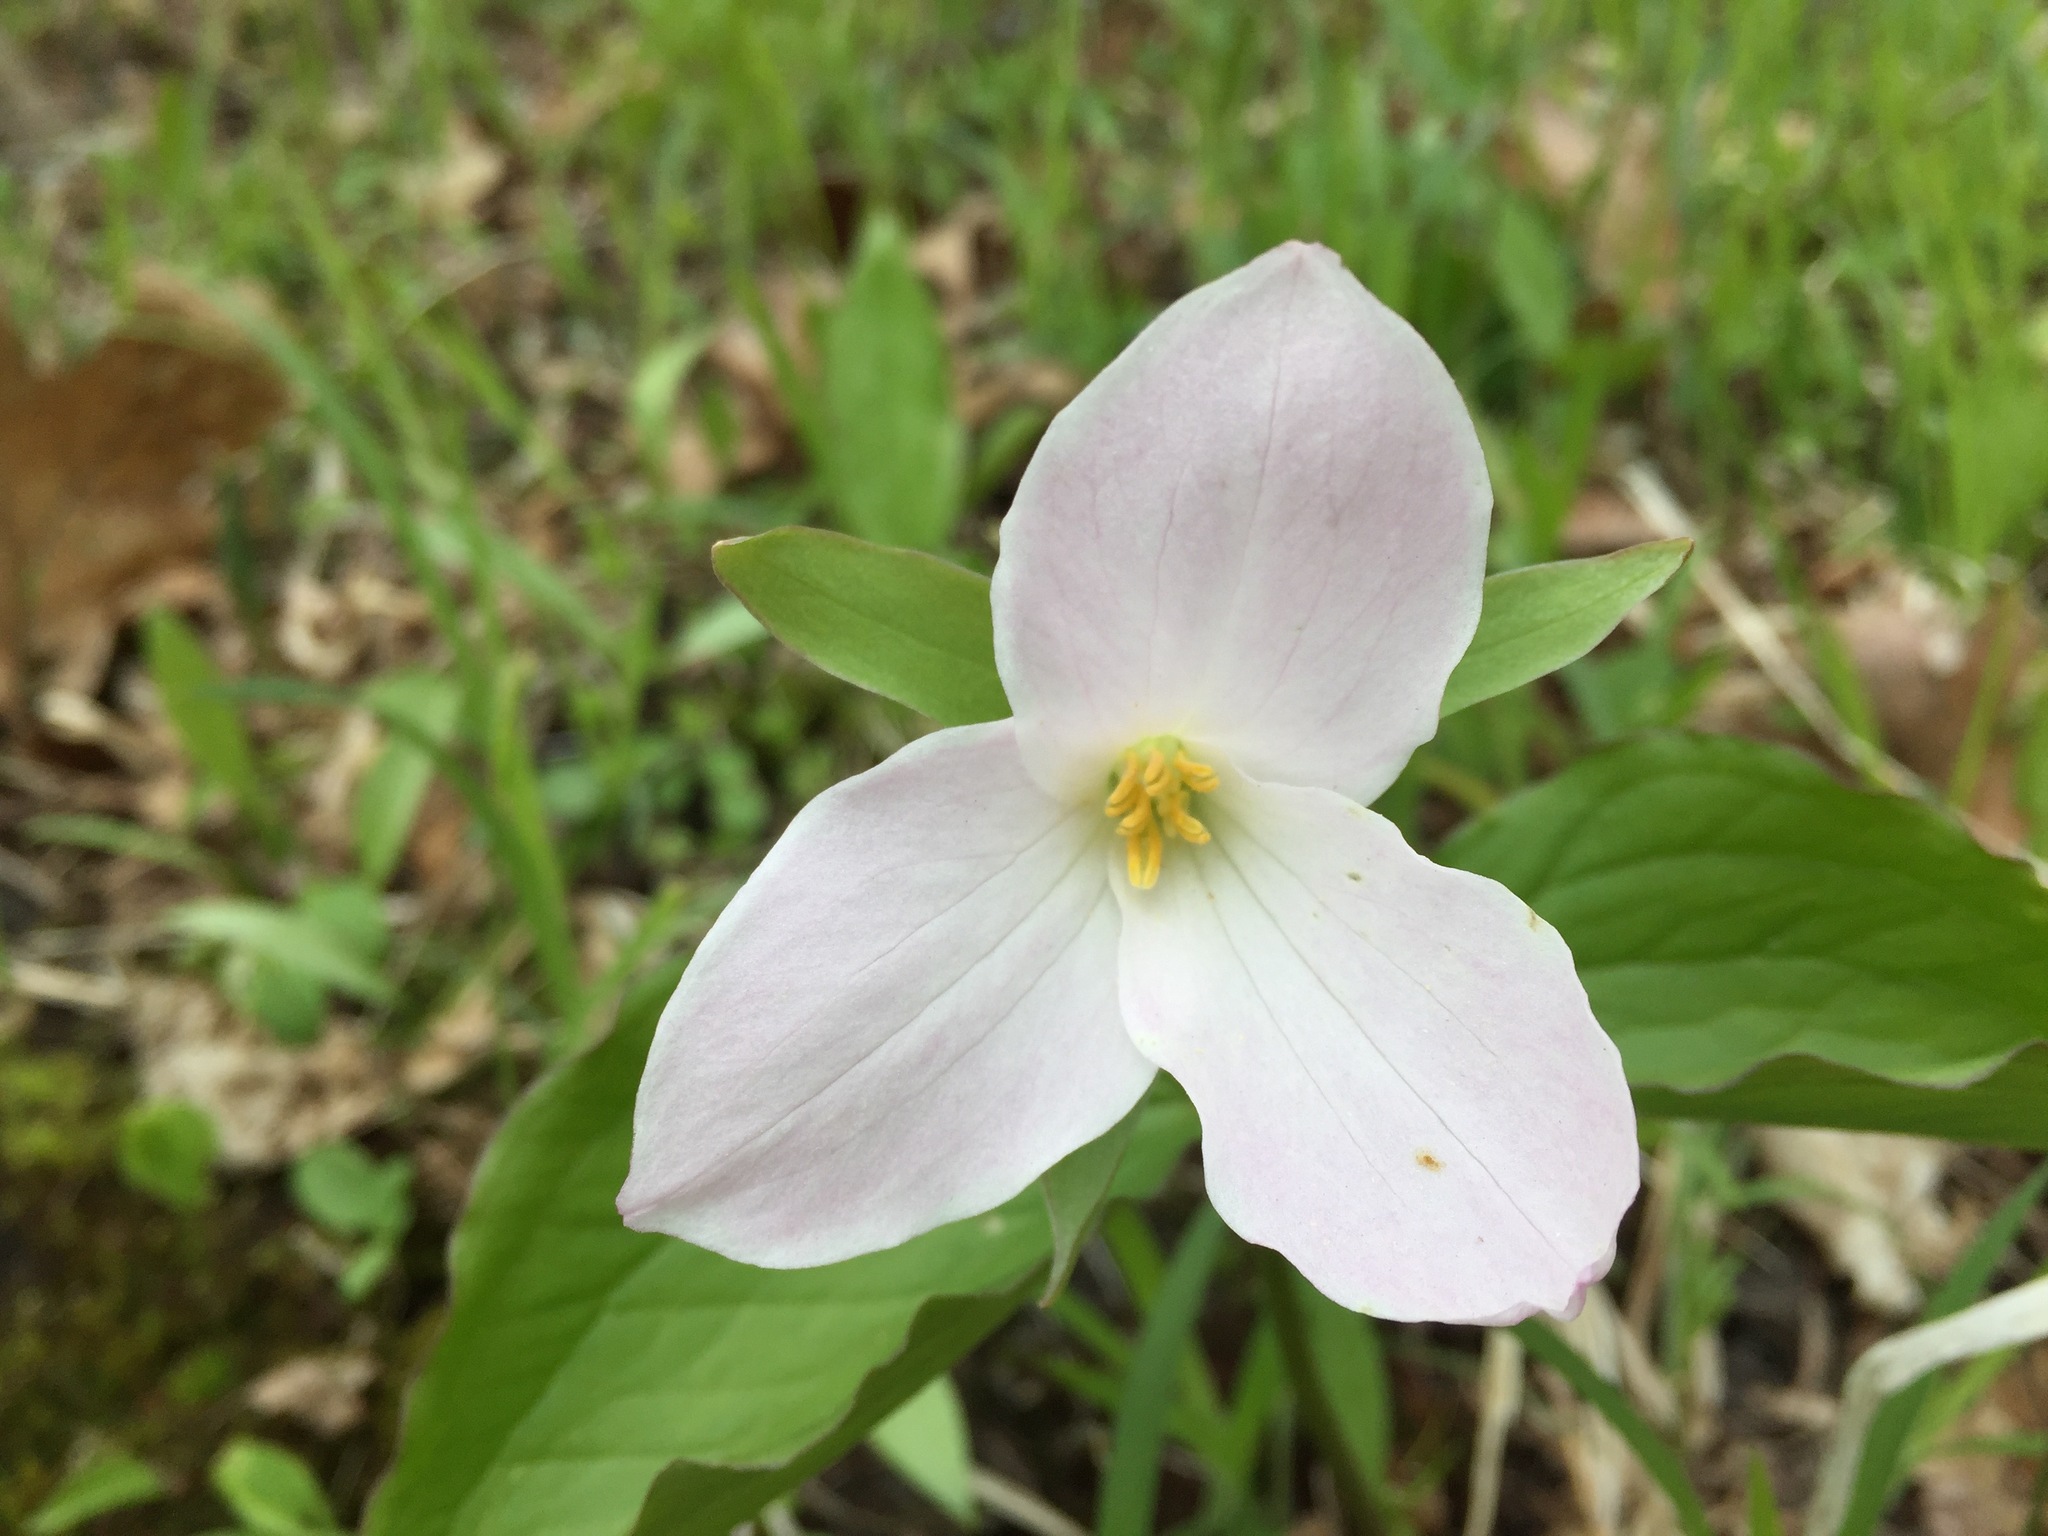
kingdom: Plantae
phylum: Tracheophyta
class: Liliopsida
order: Liliales
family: Melanthiaceae
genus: Trillium
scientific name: Trillium grandiflorum
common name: Great white trillium
